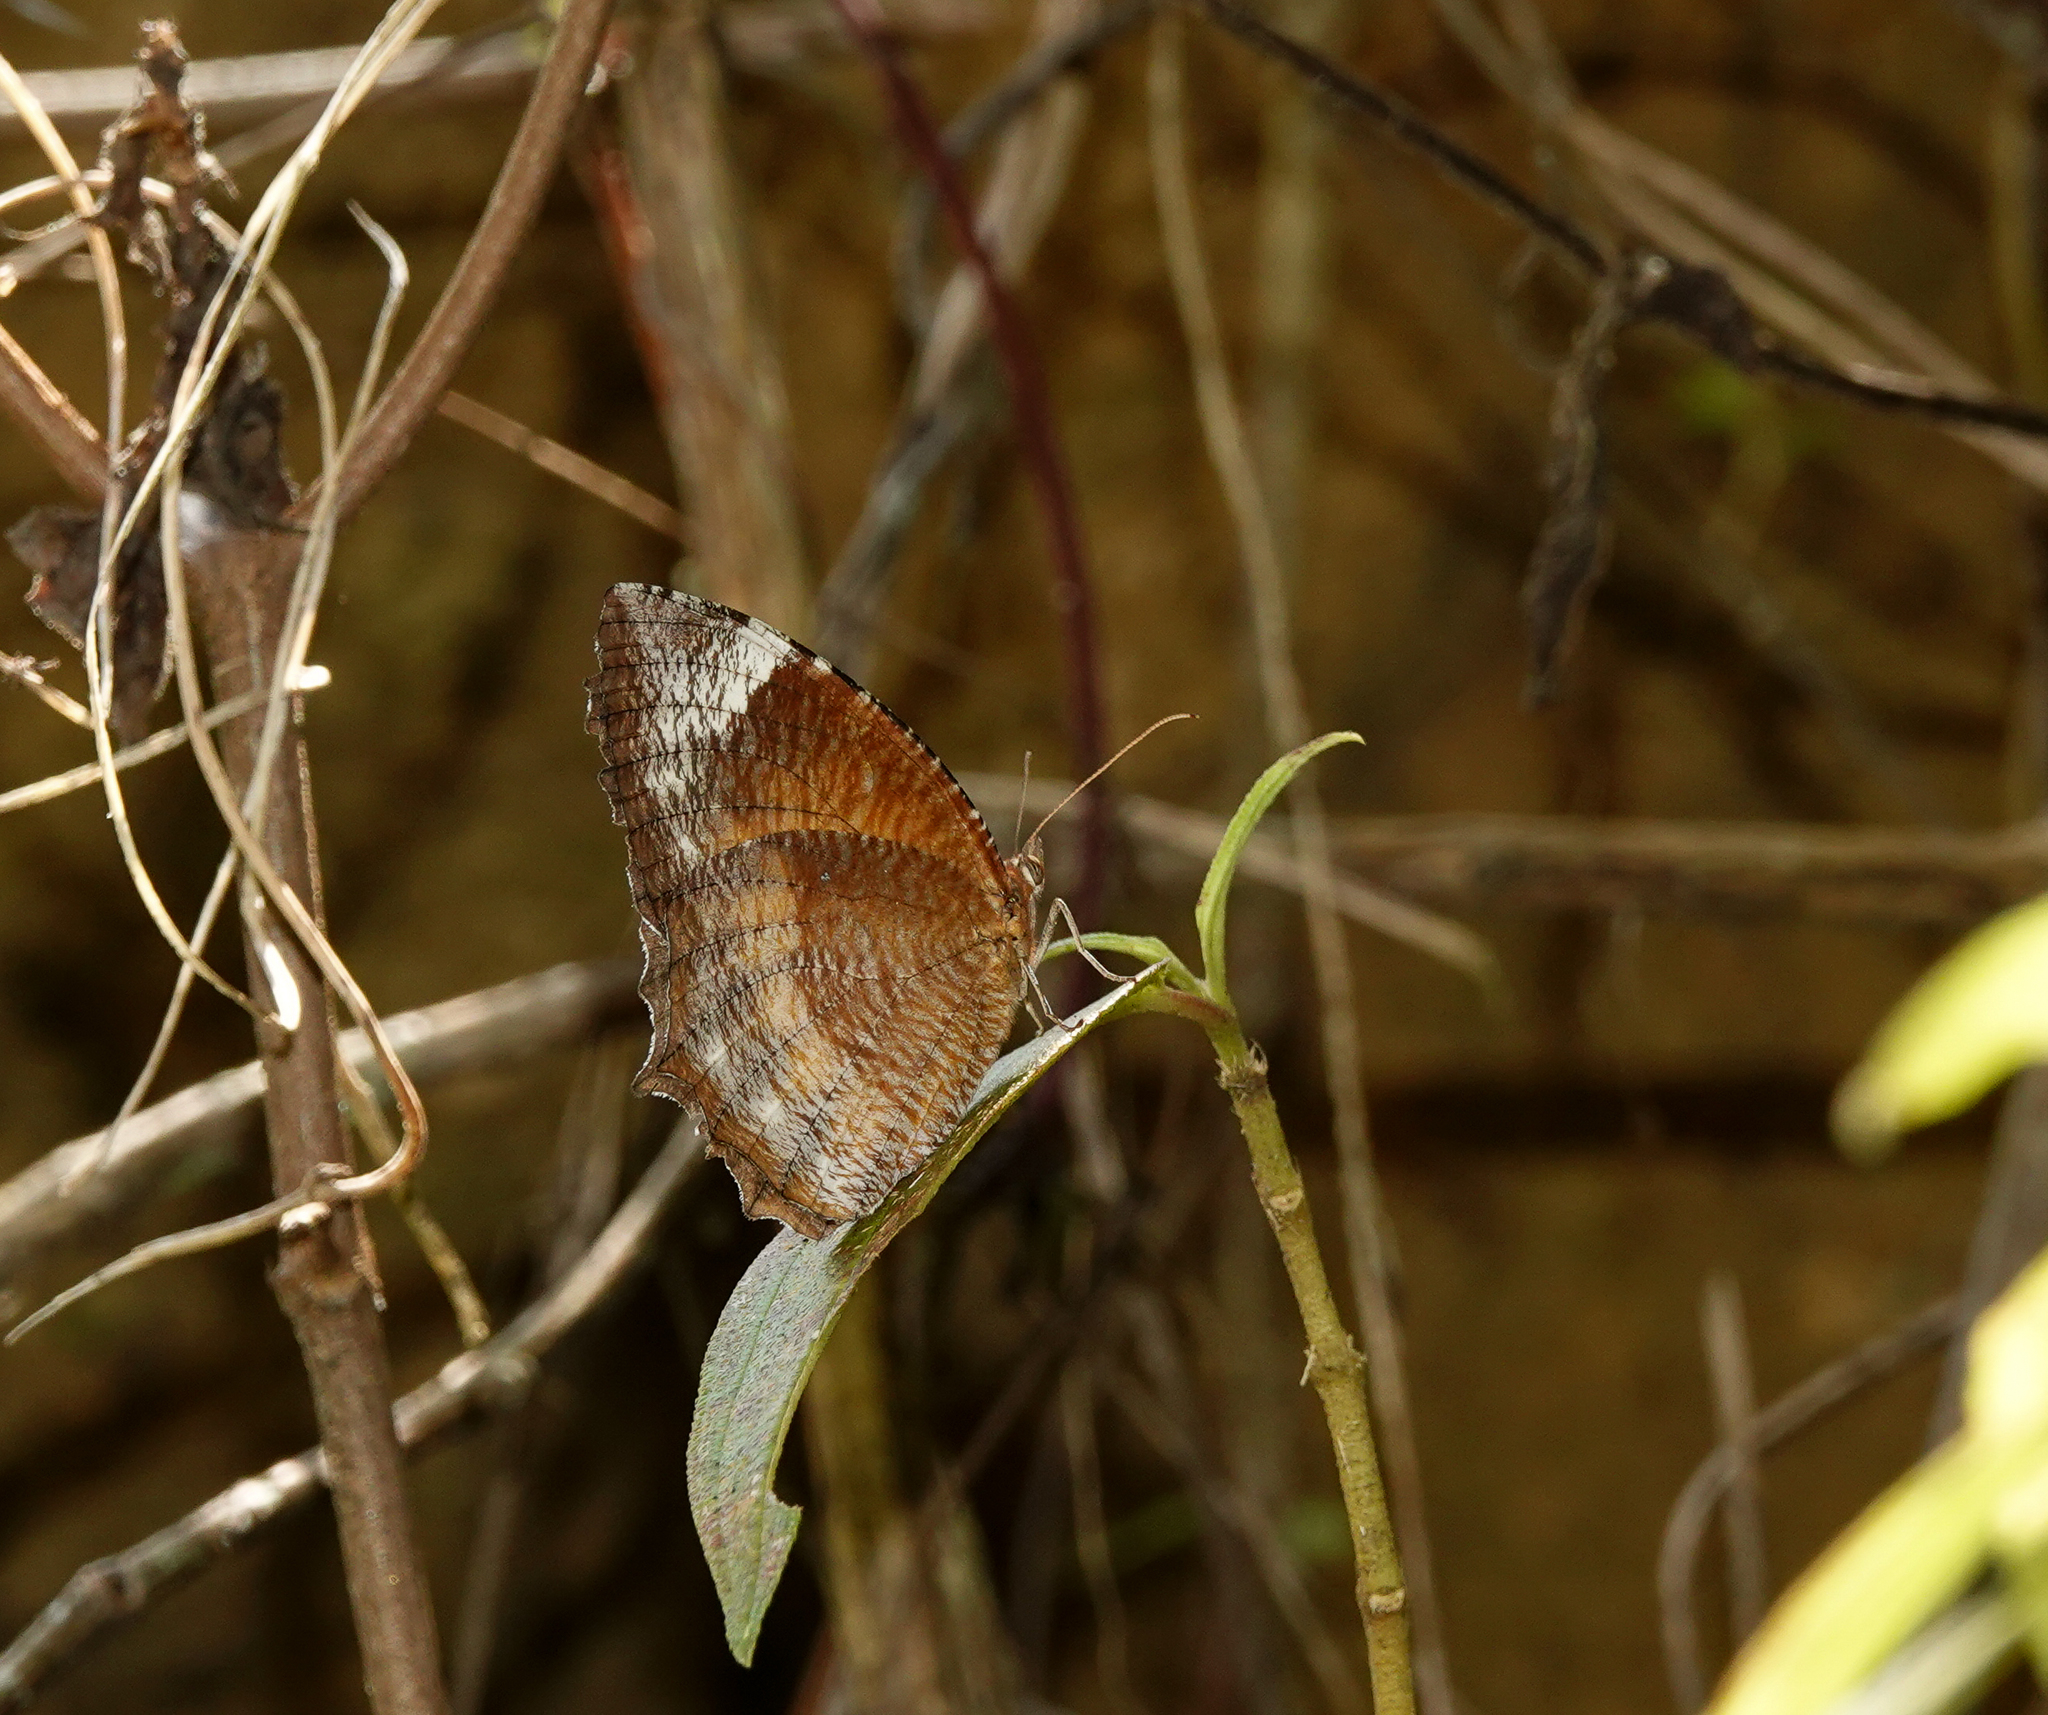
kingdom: Animalia
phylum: Arthropoda
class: Insecta
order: Lepidoptera
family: Nymphalidae
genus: Elymnias
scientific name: Elymnias hypermnestra
